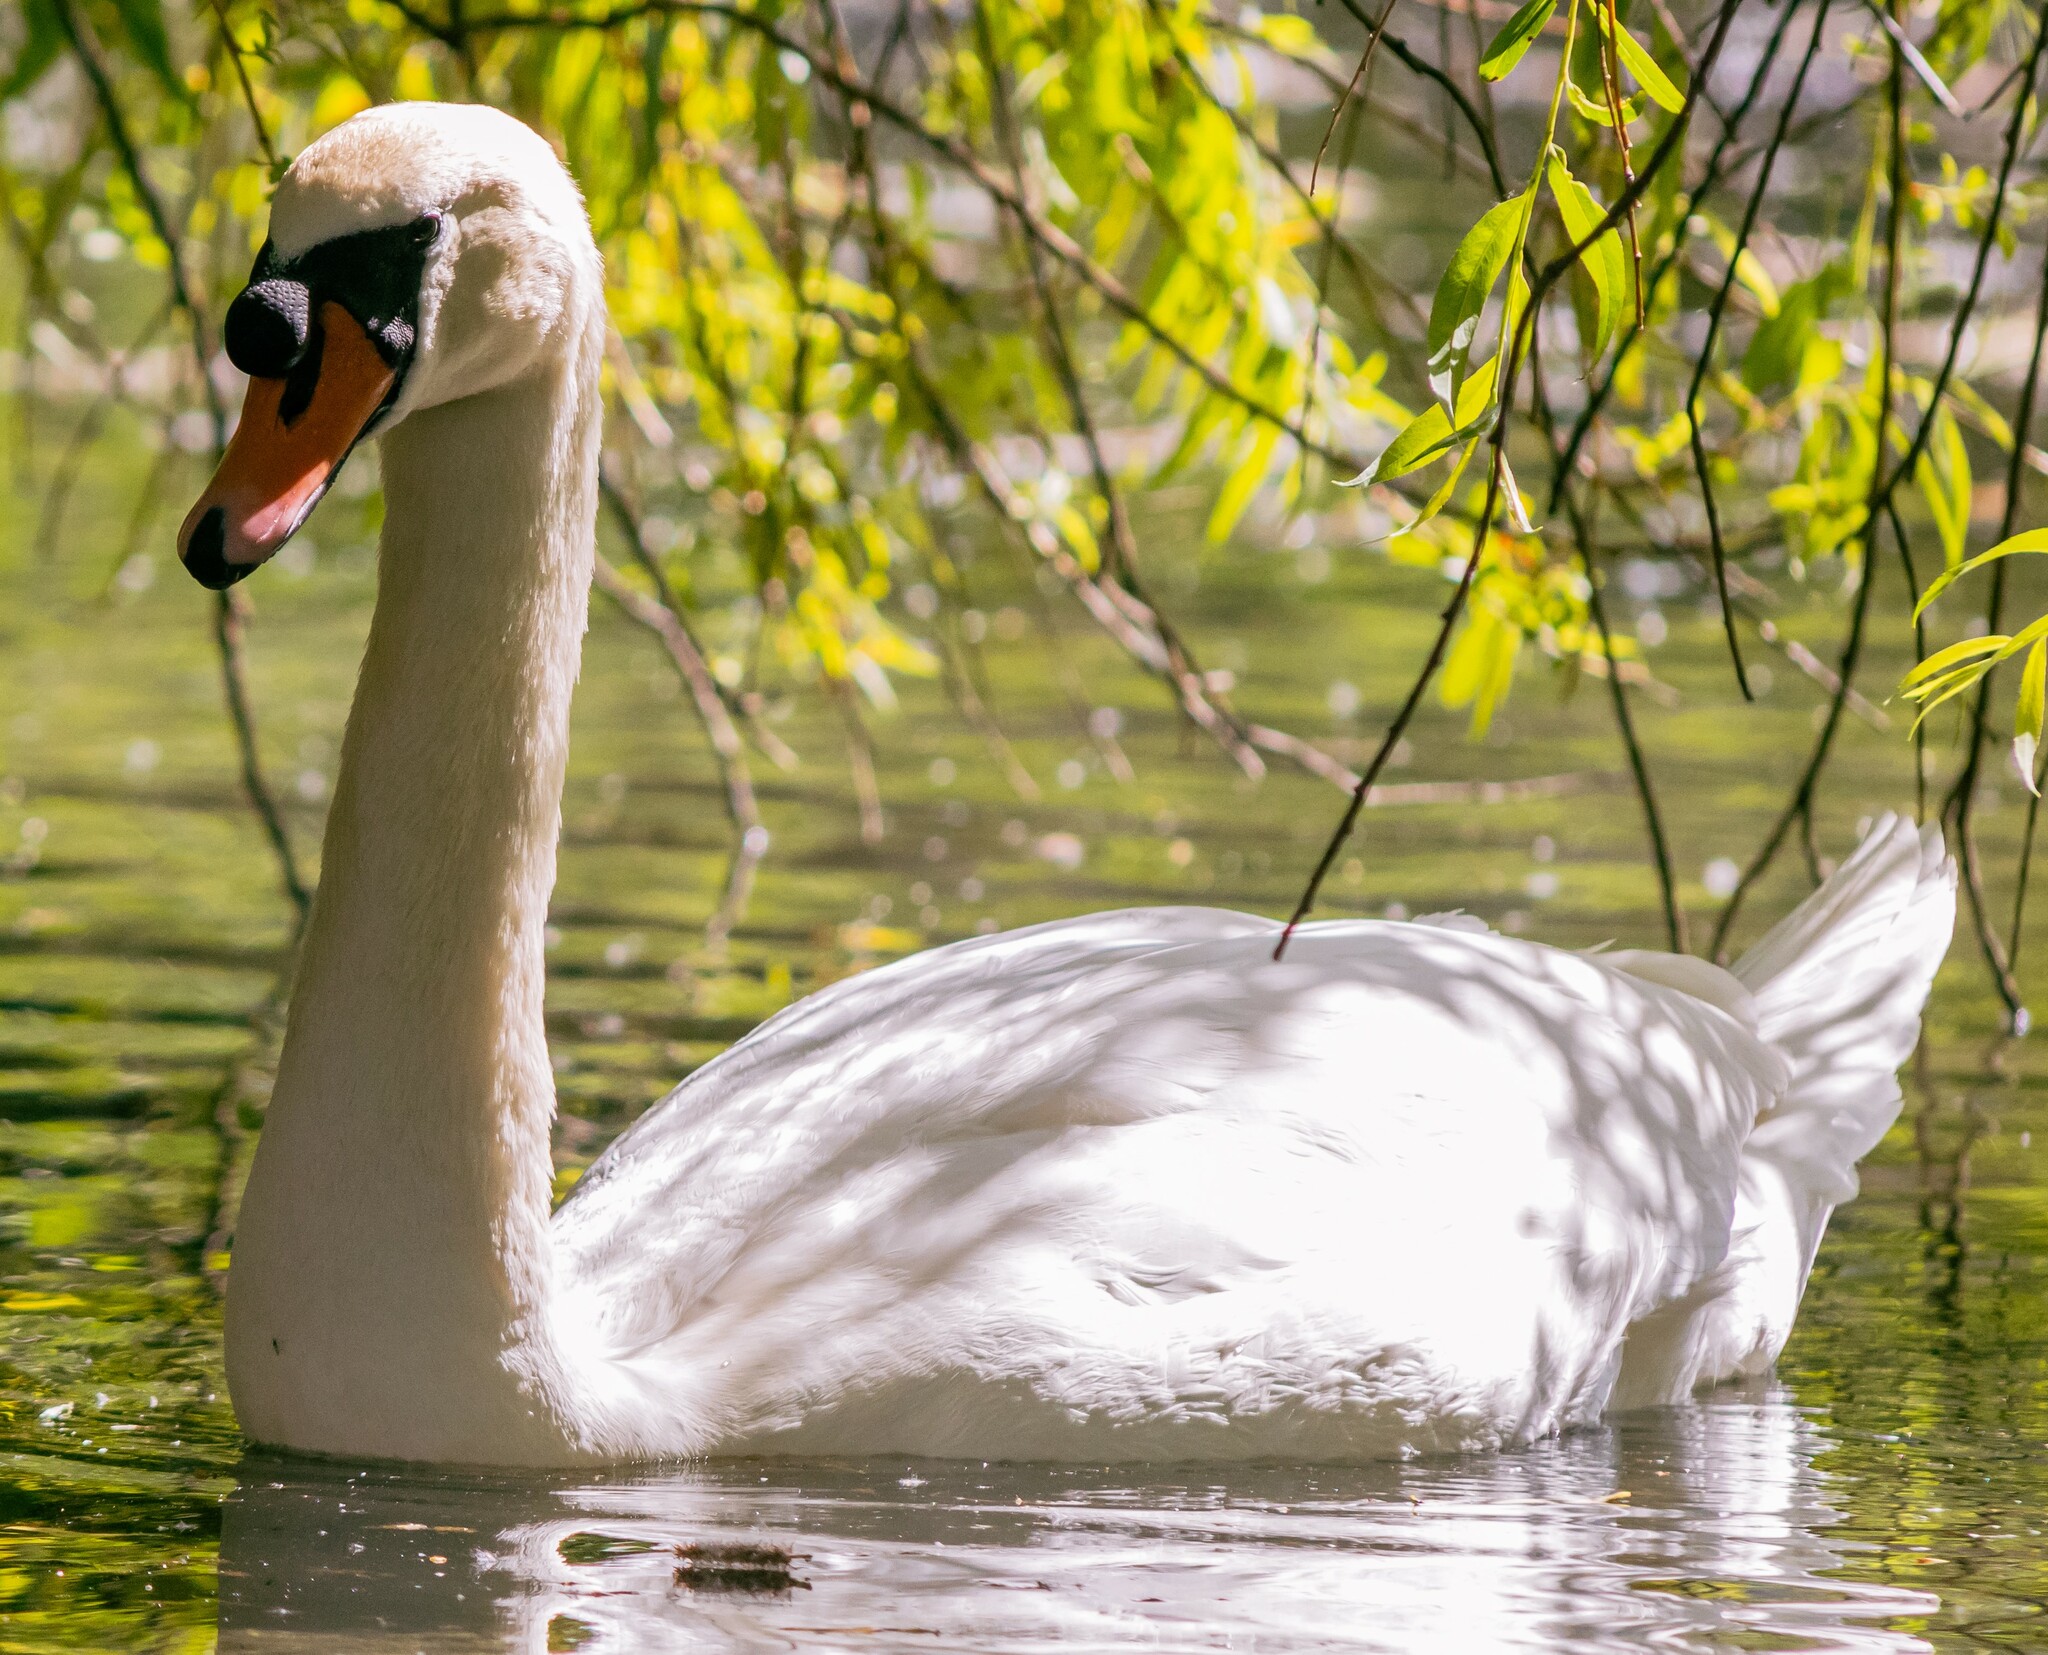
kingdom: Animalia
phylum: Chordata
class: Aves
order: Anseriformes
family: Anatidae
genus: Cygnus
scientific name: Cygnus olor
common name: Mute swan
